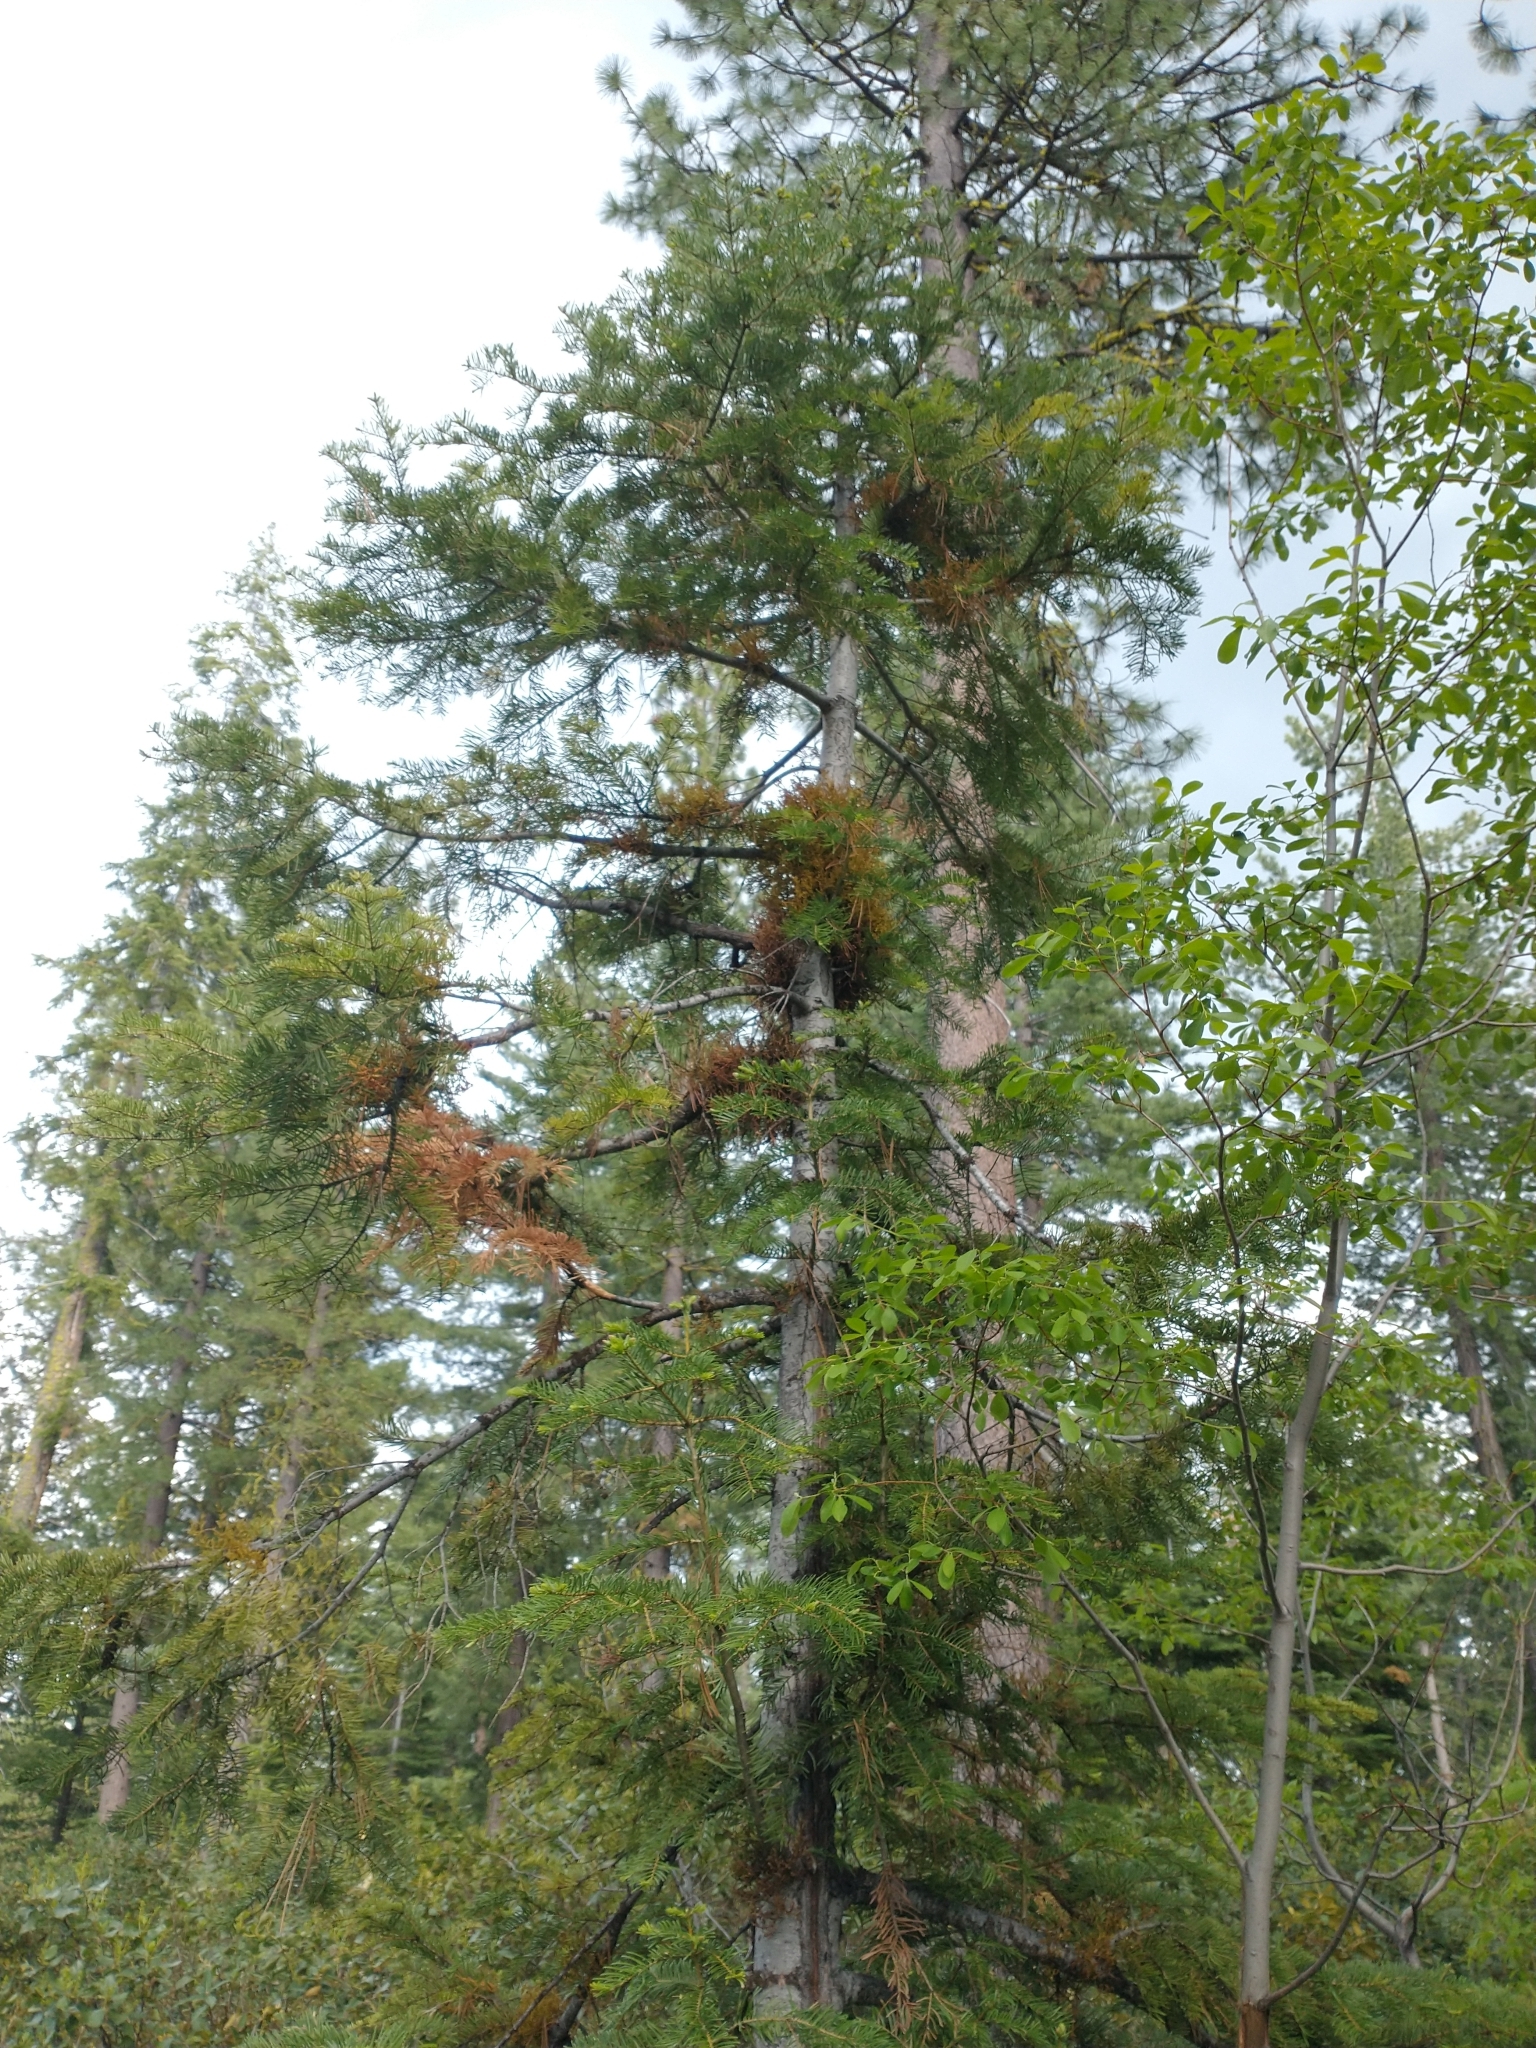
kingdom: Plantae
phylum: Tracheophyta
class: Magnoliopsida
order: Santalales
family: Viscaceae
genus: Arceuthobium
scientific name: Arceuthobium abietinum
